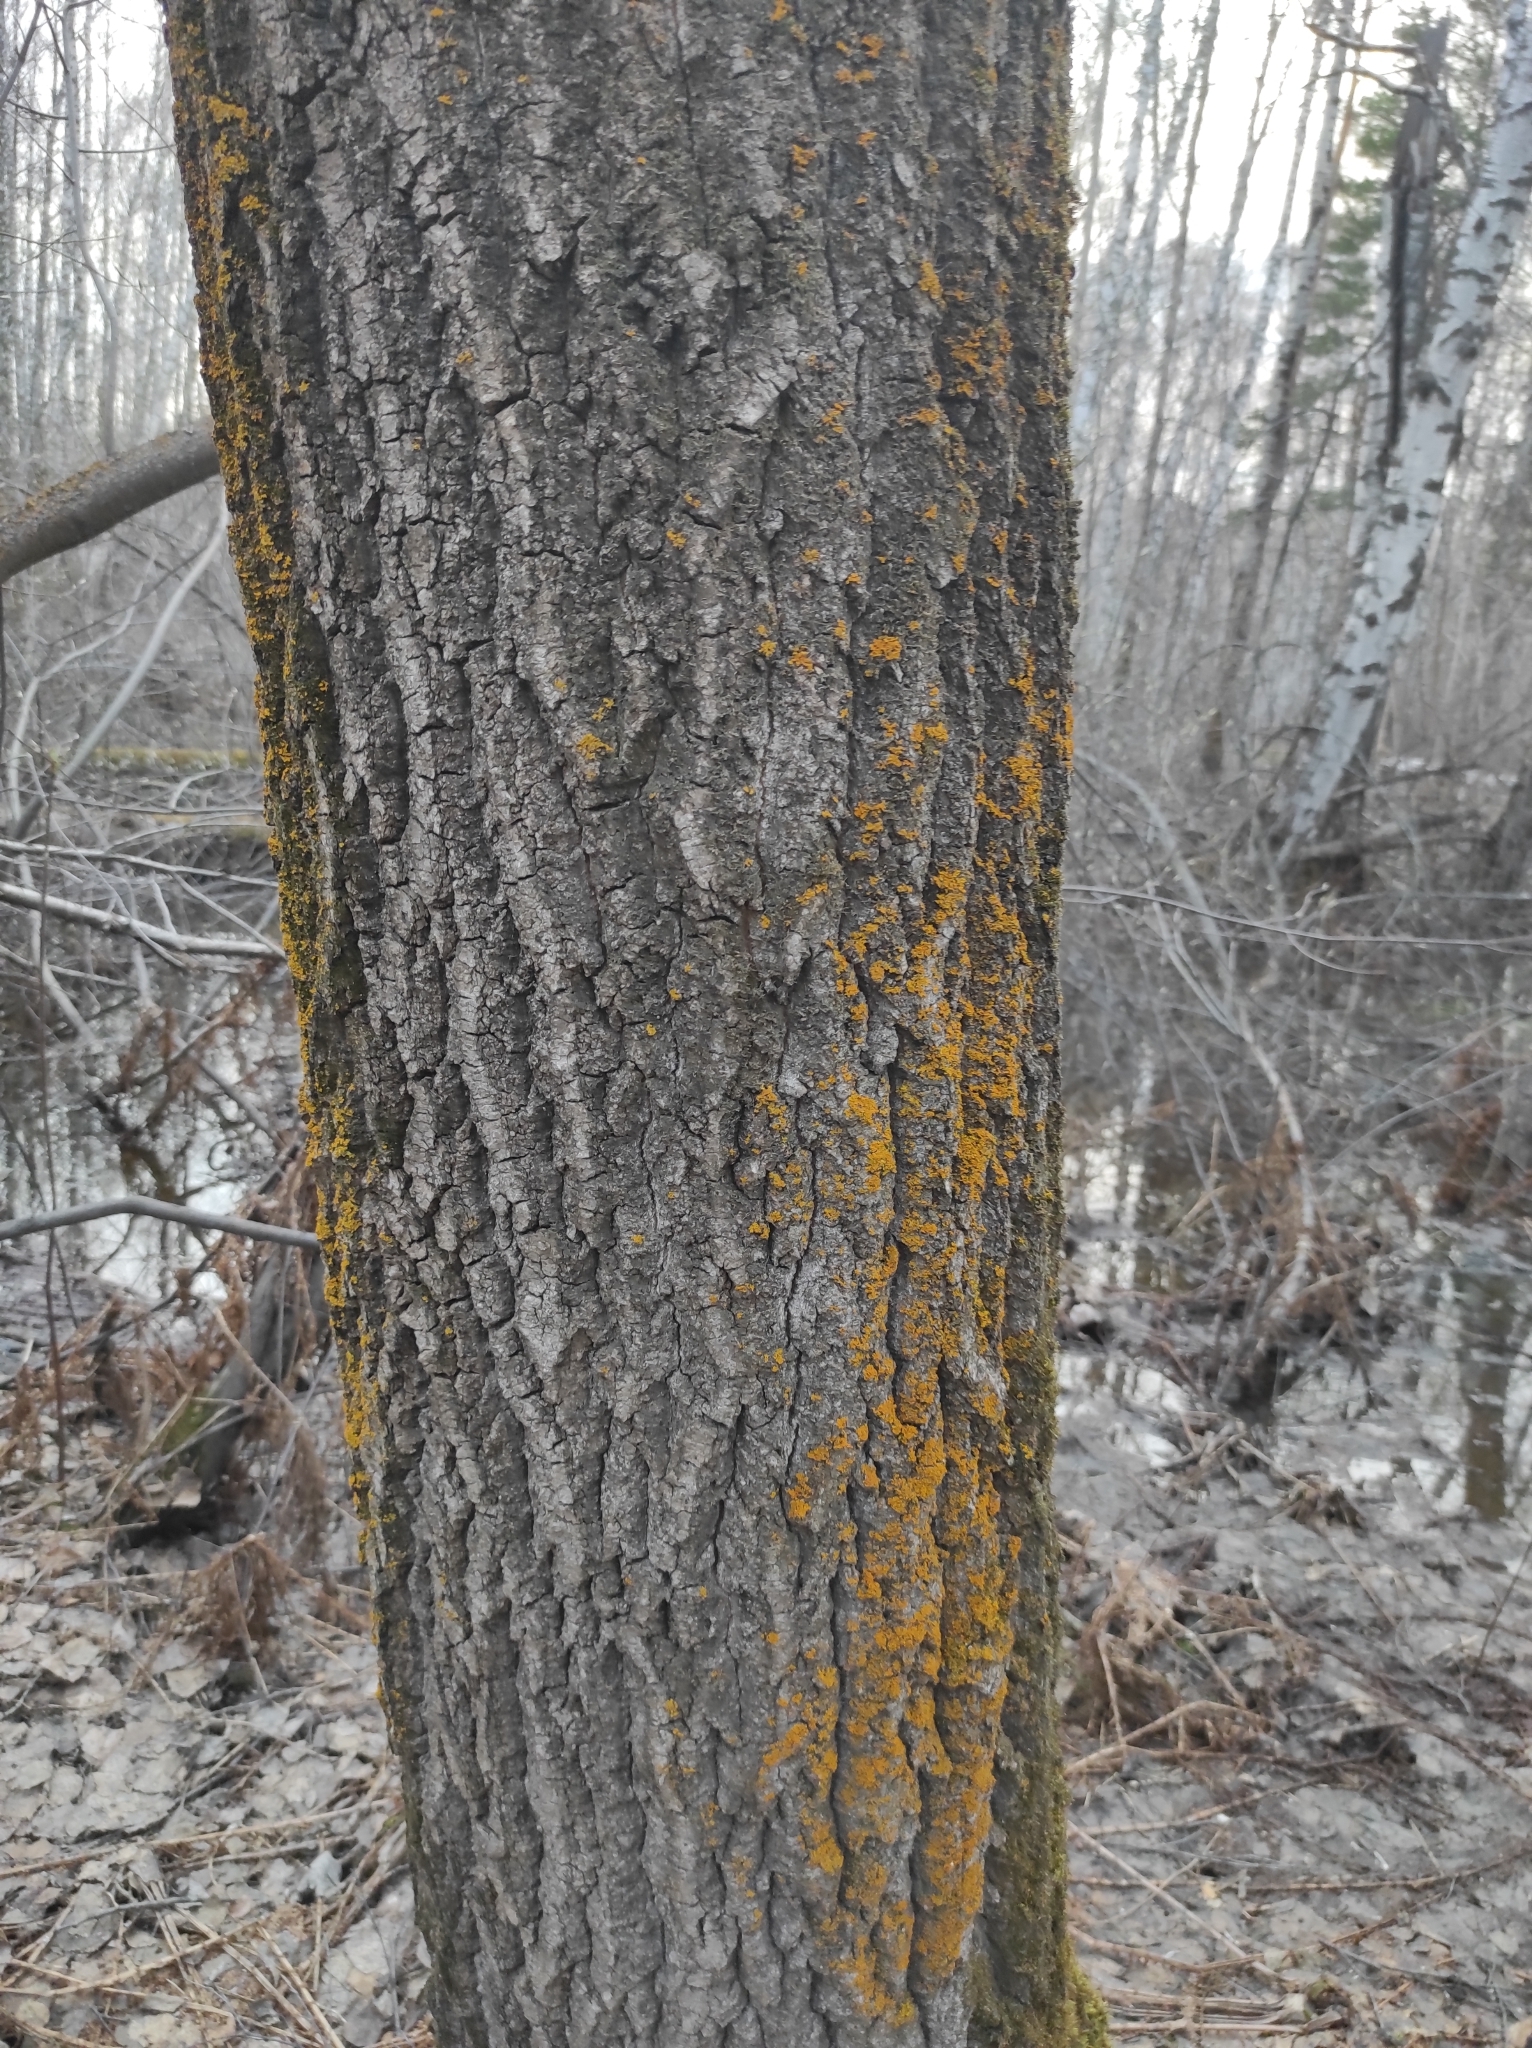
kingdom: Plantae
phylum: Tracheophyta
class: Magnoliopsida
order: Malpighiales
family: Salicaceae
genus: Populus
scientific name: Populus tremula
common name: European aspen
